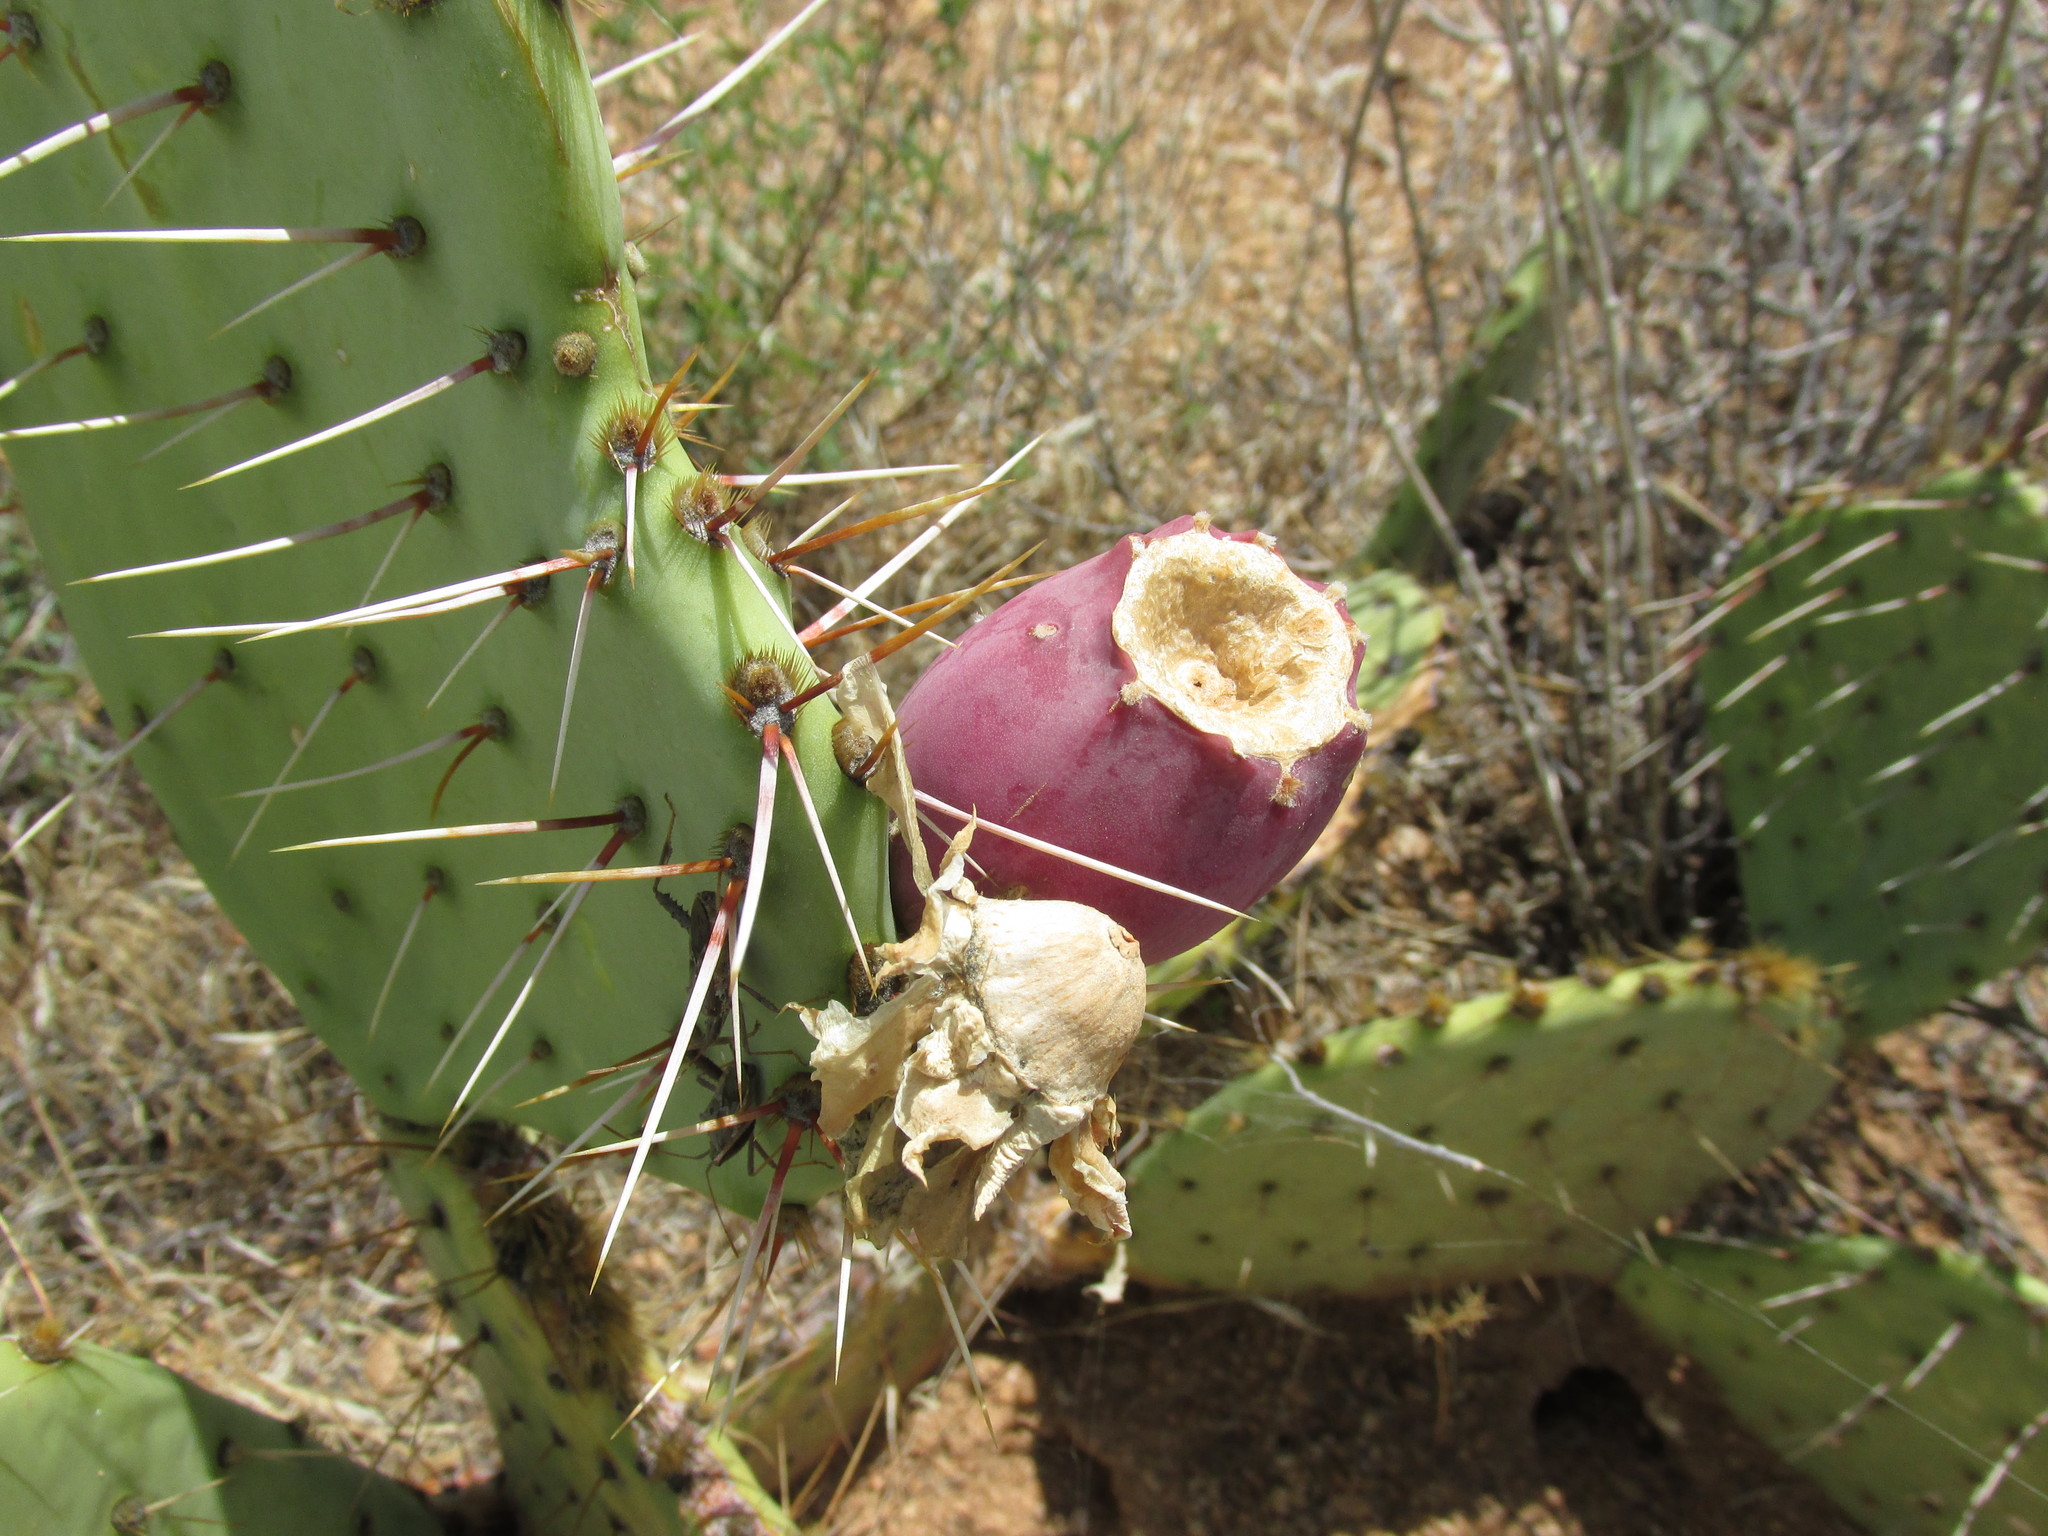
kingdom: Plantae
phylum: Tracheophyta
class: Magnoliopsida
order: Caryophyllales
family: Cactaceae
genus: Opuntia
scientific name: Opuntia engelmannii
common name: Cactus-apple
